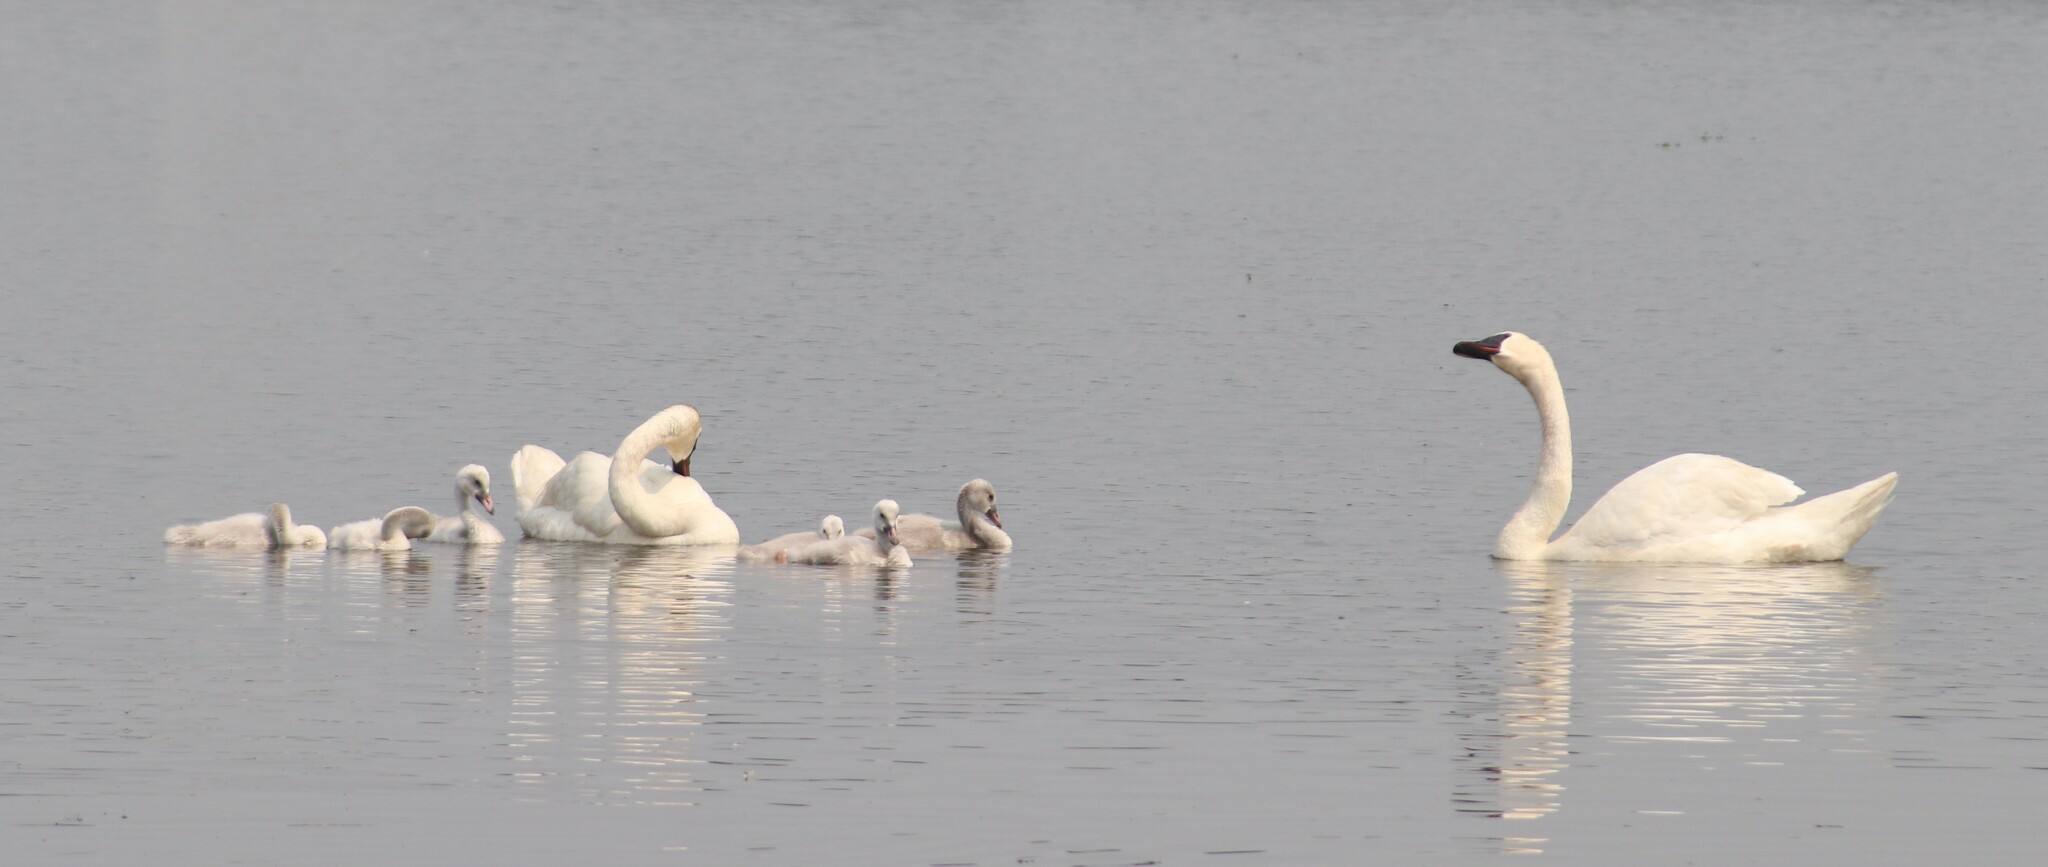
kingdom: Animalia
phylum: Chordata
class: Aves
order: Anseriformes
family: Anatidae
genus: Cygnus
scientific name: Cygnus buccinator
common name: Trumpeter swan
